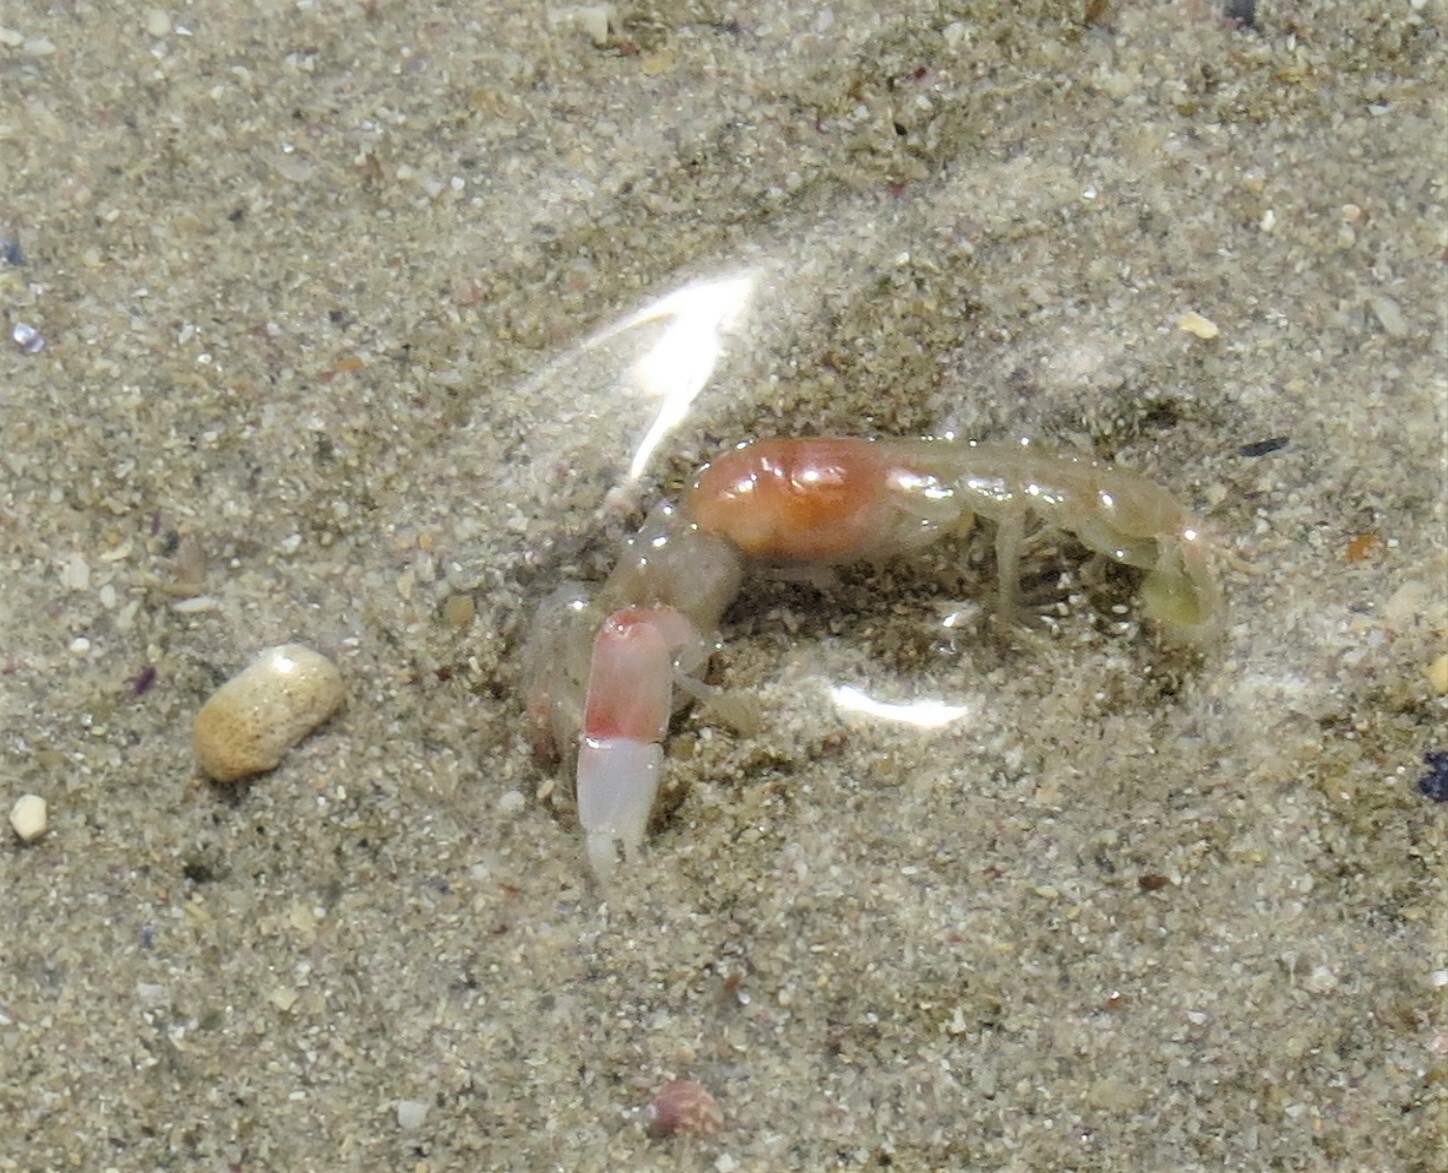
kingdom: Animalia
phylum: Arthropoda
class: Malacostraca
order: Decapoda
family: Callichiridae
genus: Kraussillichirus
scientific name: Kraussillichirus kraussi
